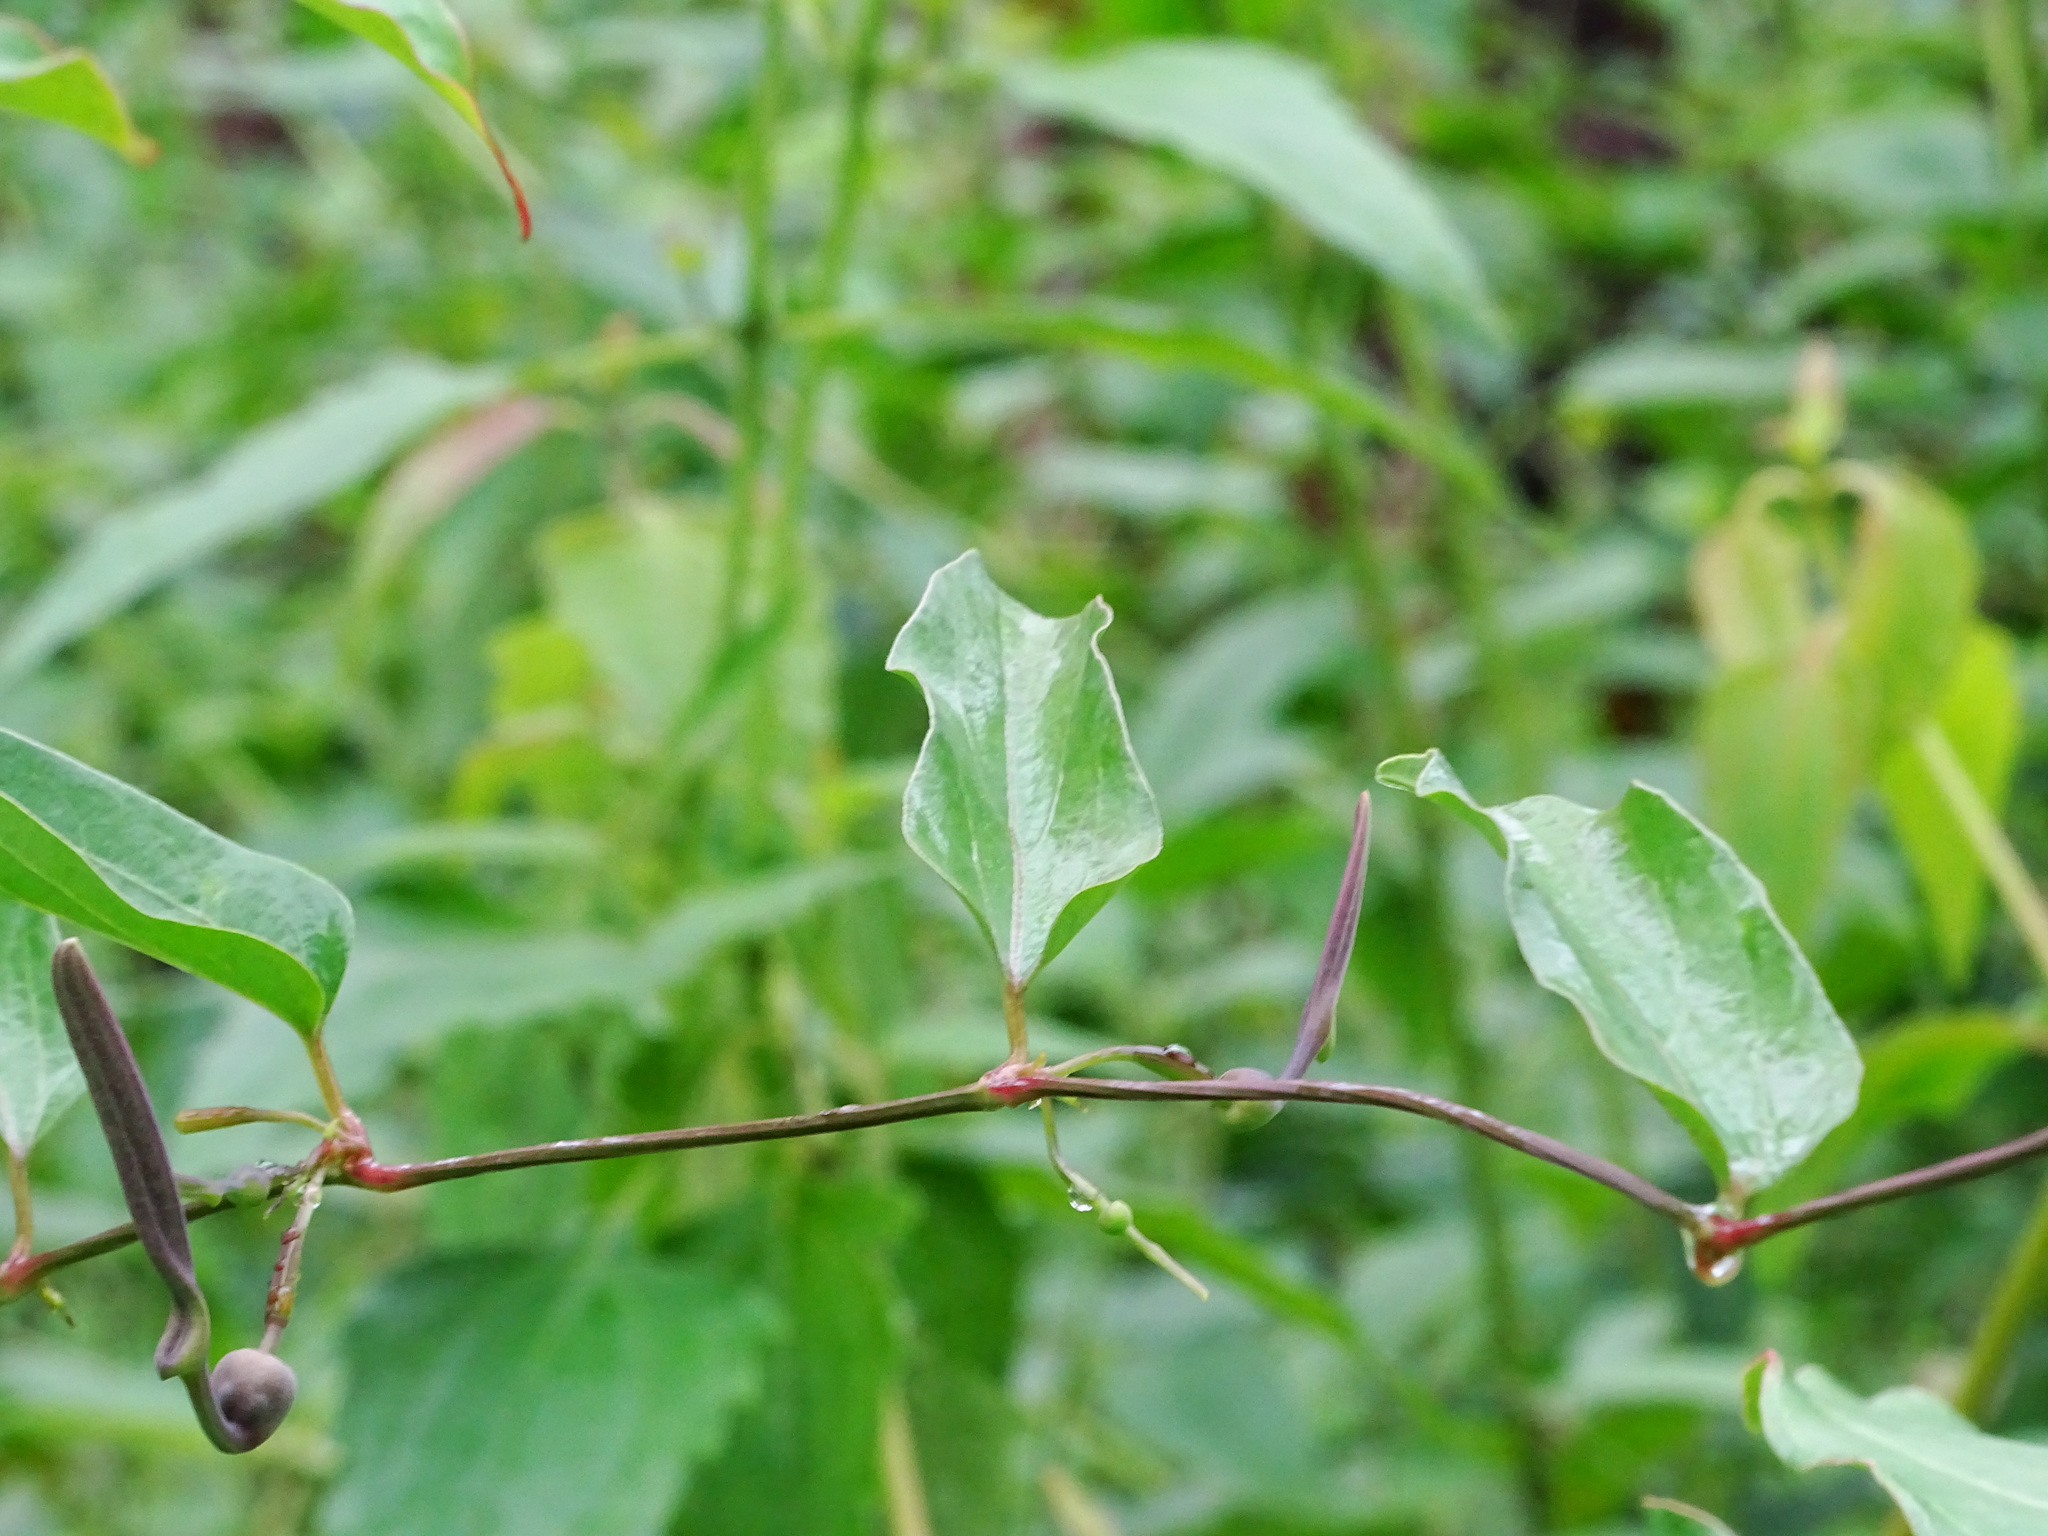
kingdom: Plantae
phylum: Tracheophyta
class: Magnoliopsida
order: Piperales
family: Aristolochiaceae
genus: Aristolochia
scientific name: Aristolochia indica
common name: Indian birthwort
